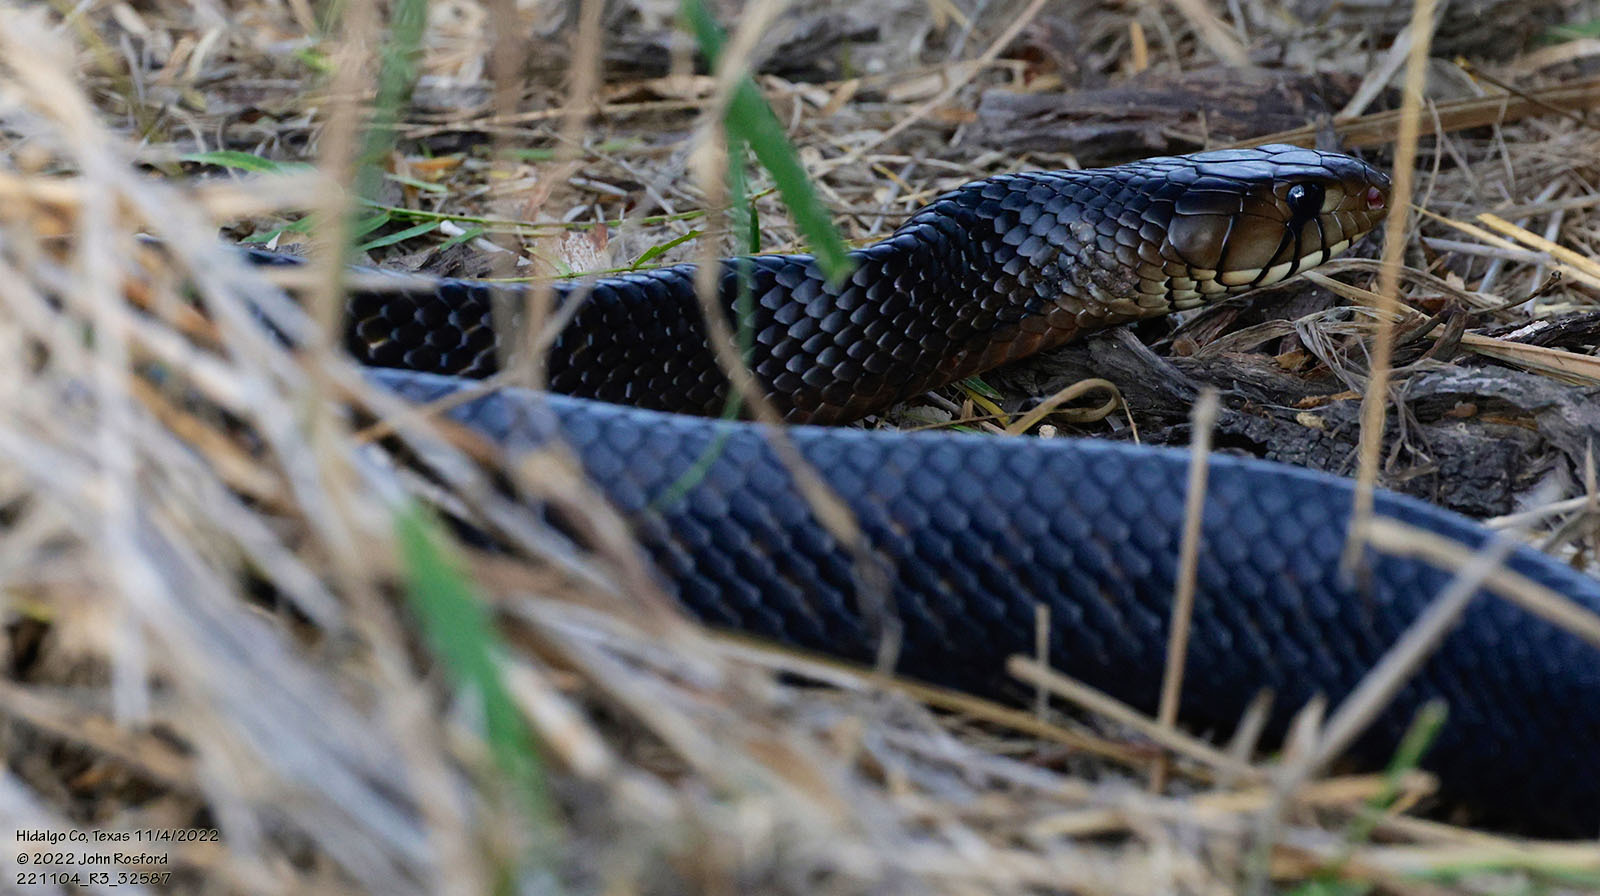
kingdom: Animalia
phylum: Chordata
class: Squamata
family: Colubridae
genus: Drymarchon
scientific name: Drymarchon melanurus
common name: Central american indigo snake
